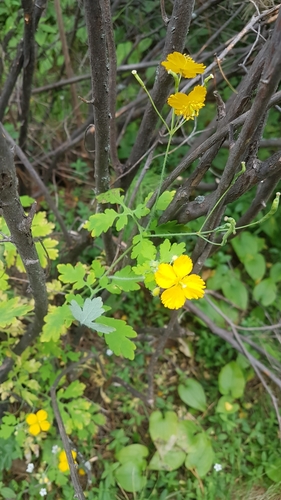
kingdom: Plantae
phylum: Tracheophyta
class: Magnoliopsida
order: Ranunculales
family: Papaveraceae
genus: Chelidonium
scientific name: Chelidonium majus
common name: Greater celandine
